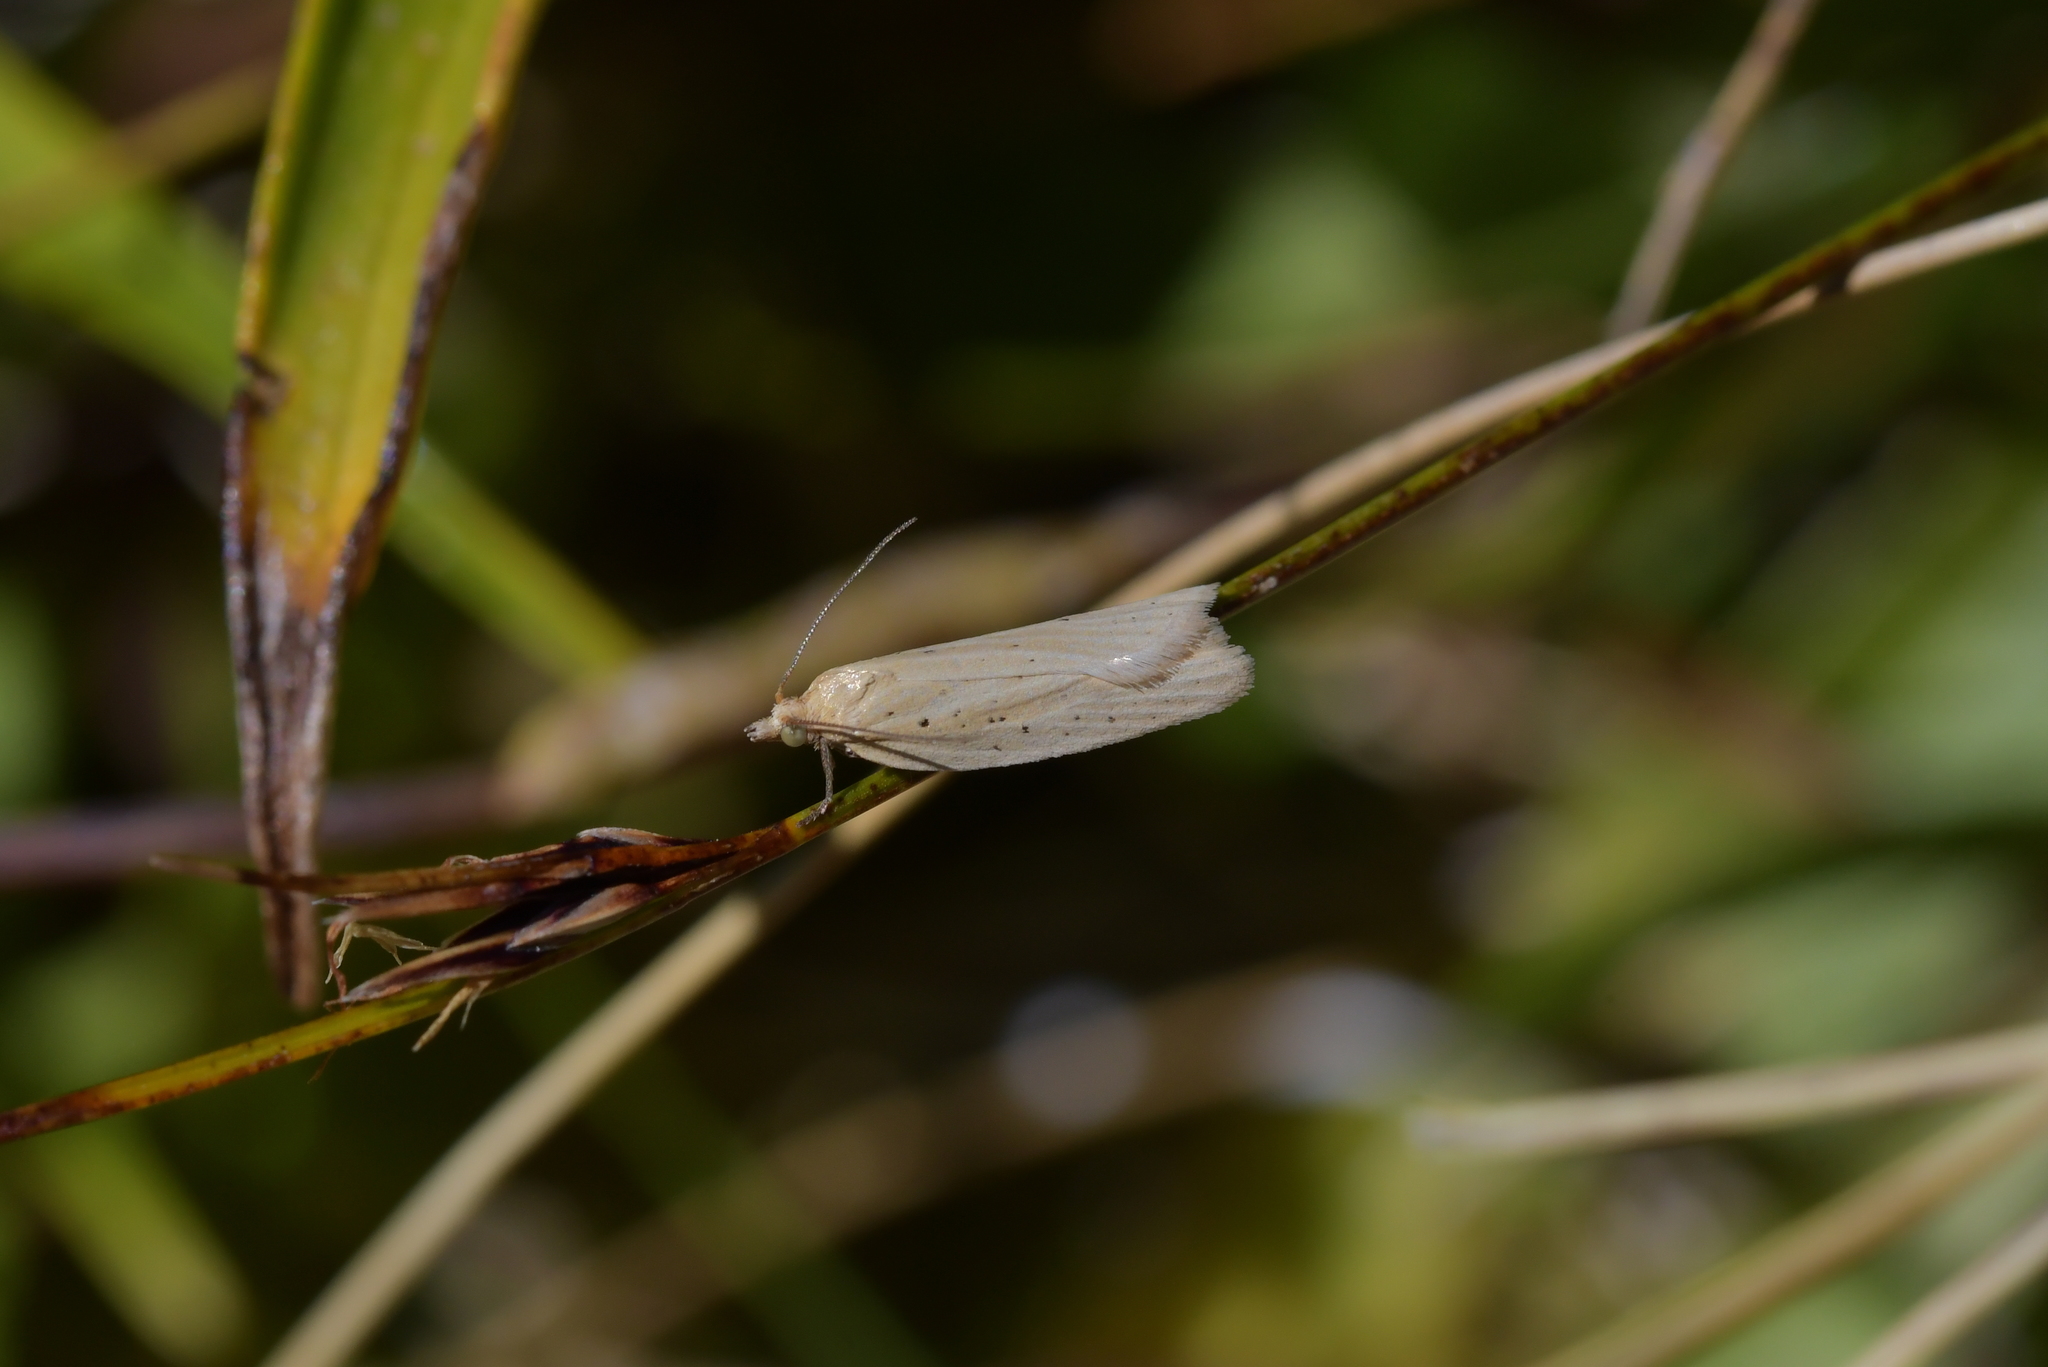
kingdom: Animalia
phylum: Arthropoda
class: Insecta
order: Lepidoptera
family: Tortricidae
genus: Clepsis
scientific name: Clepsis
